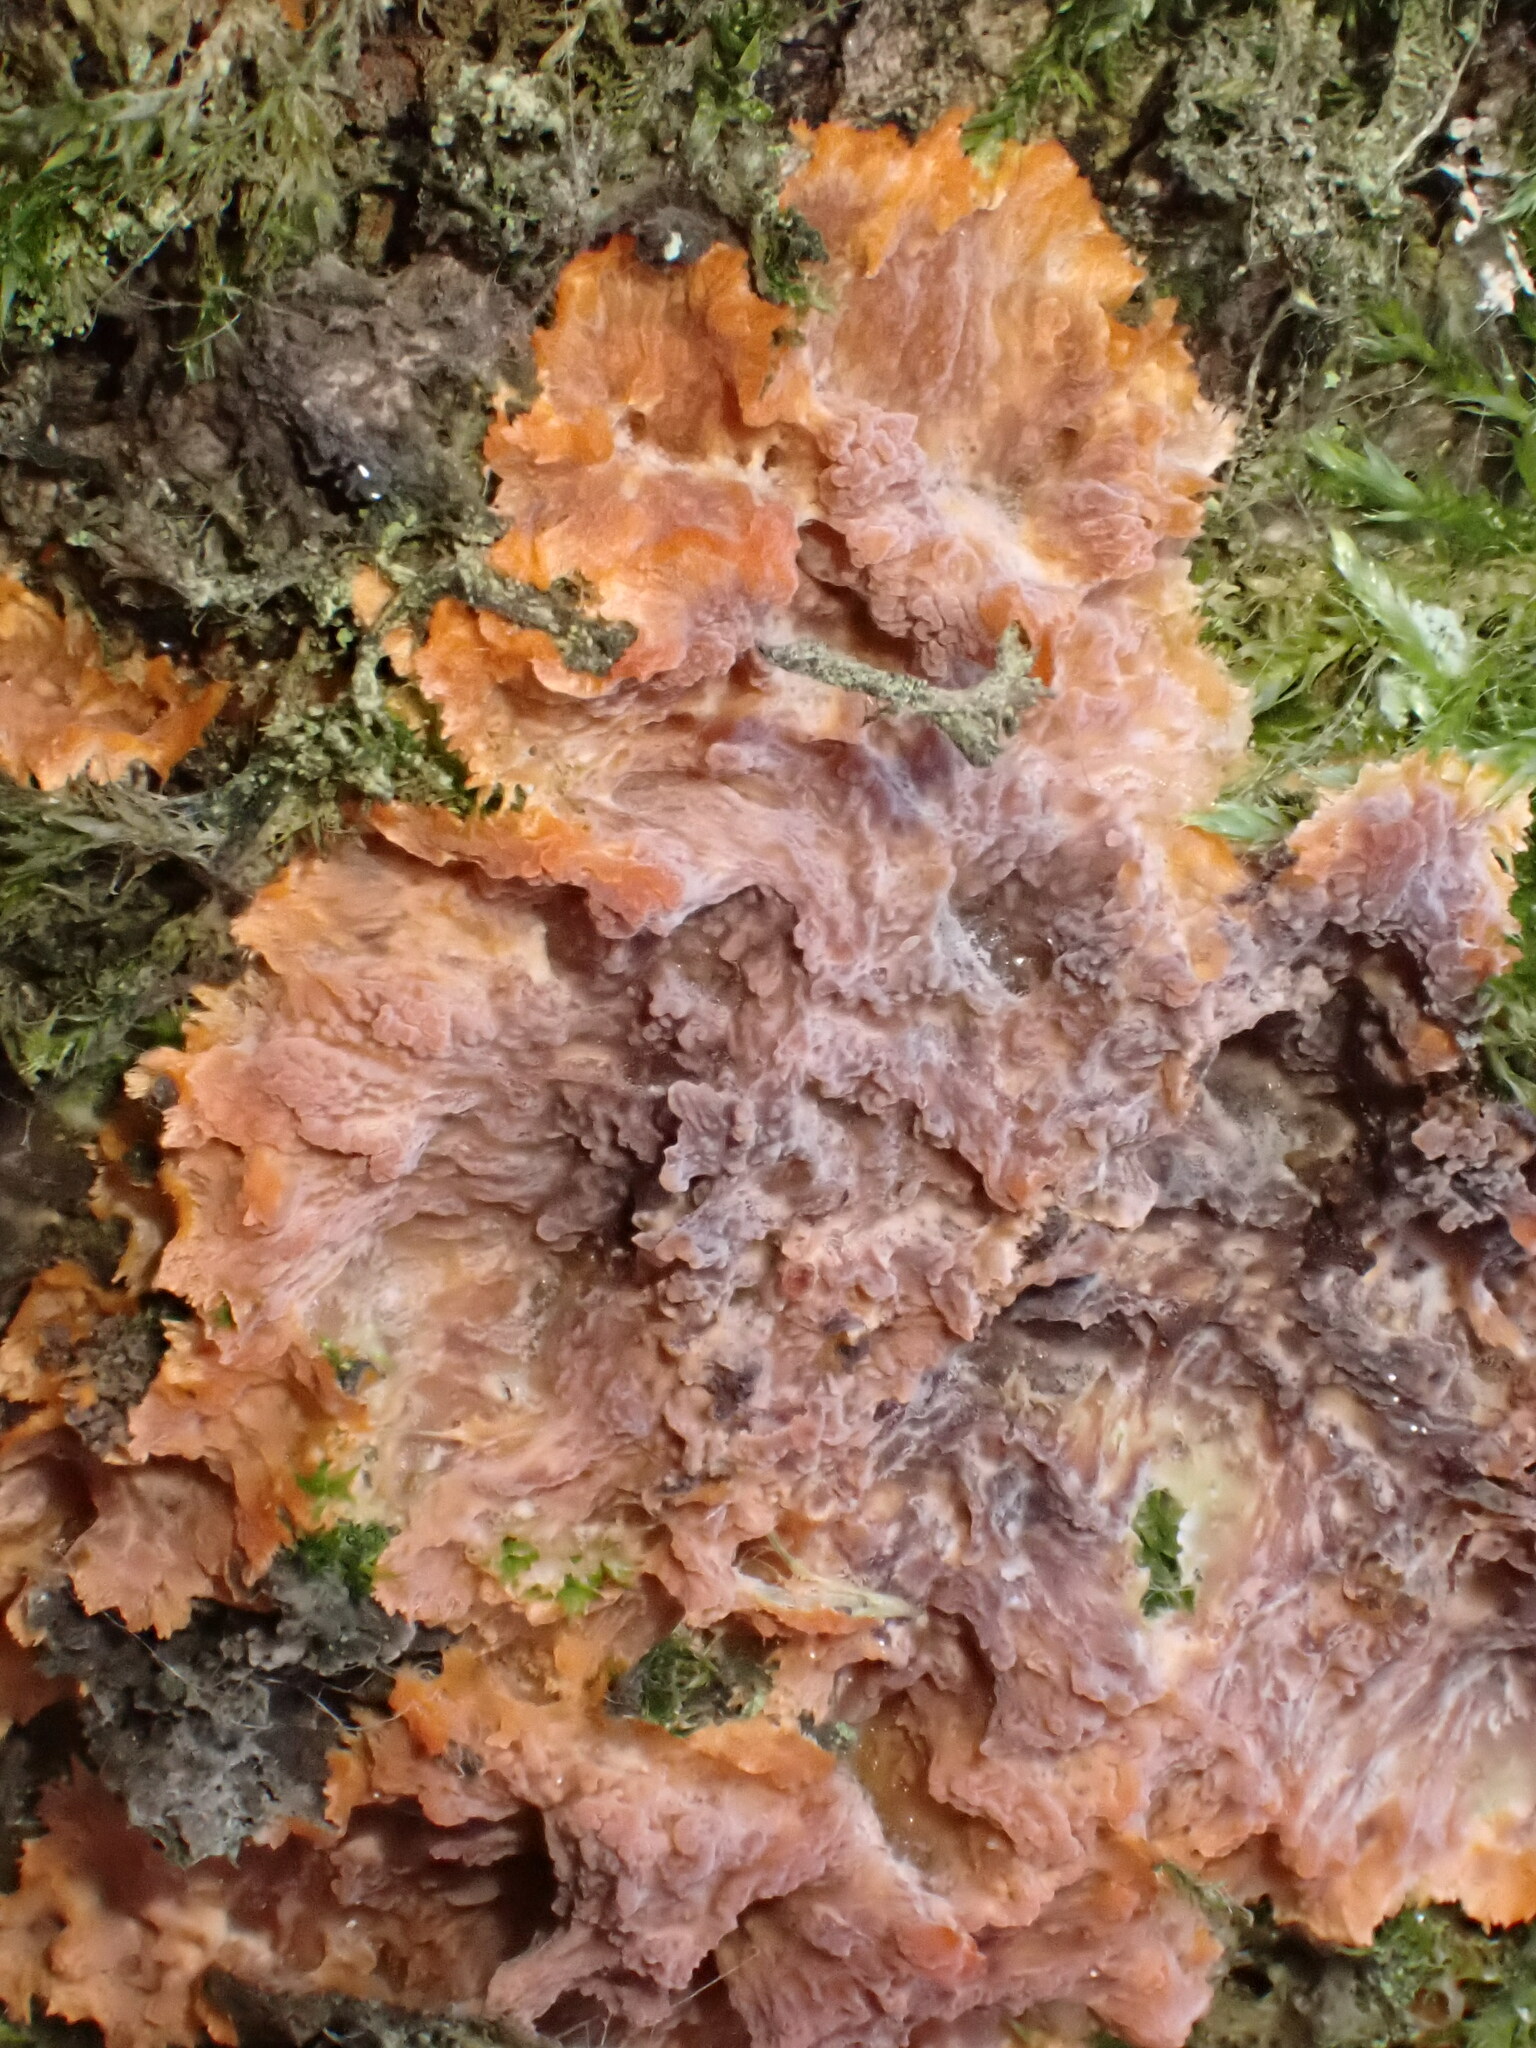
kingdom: Fungi
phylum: Basidiomycota
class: Agaricomycetes
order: Polyporales
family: Meruliaceae
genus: Phlebia
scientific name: Phlebia radiata
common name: Wrinkled crust
